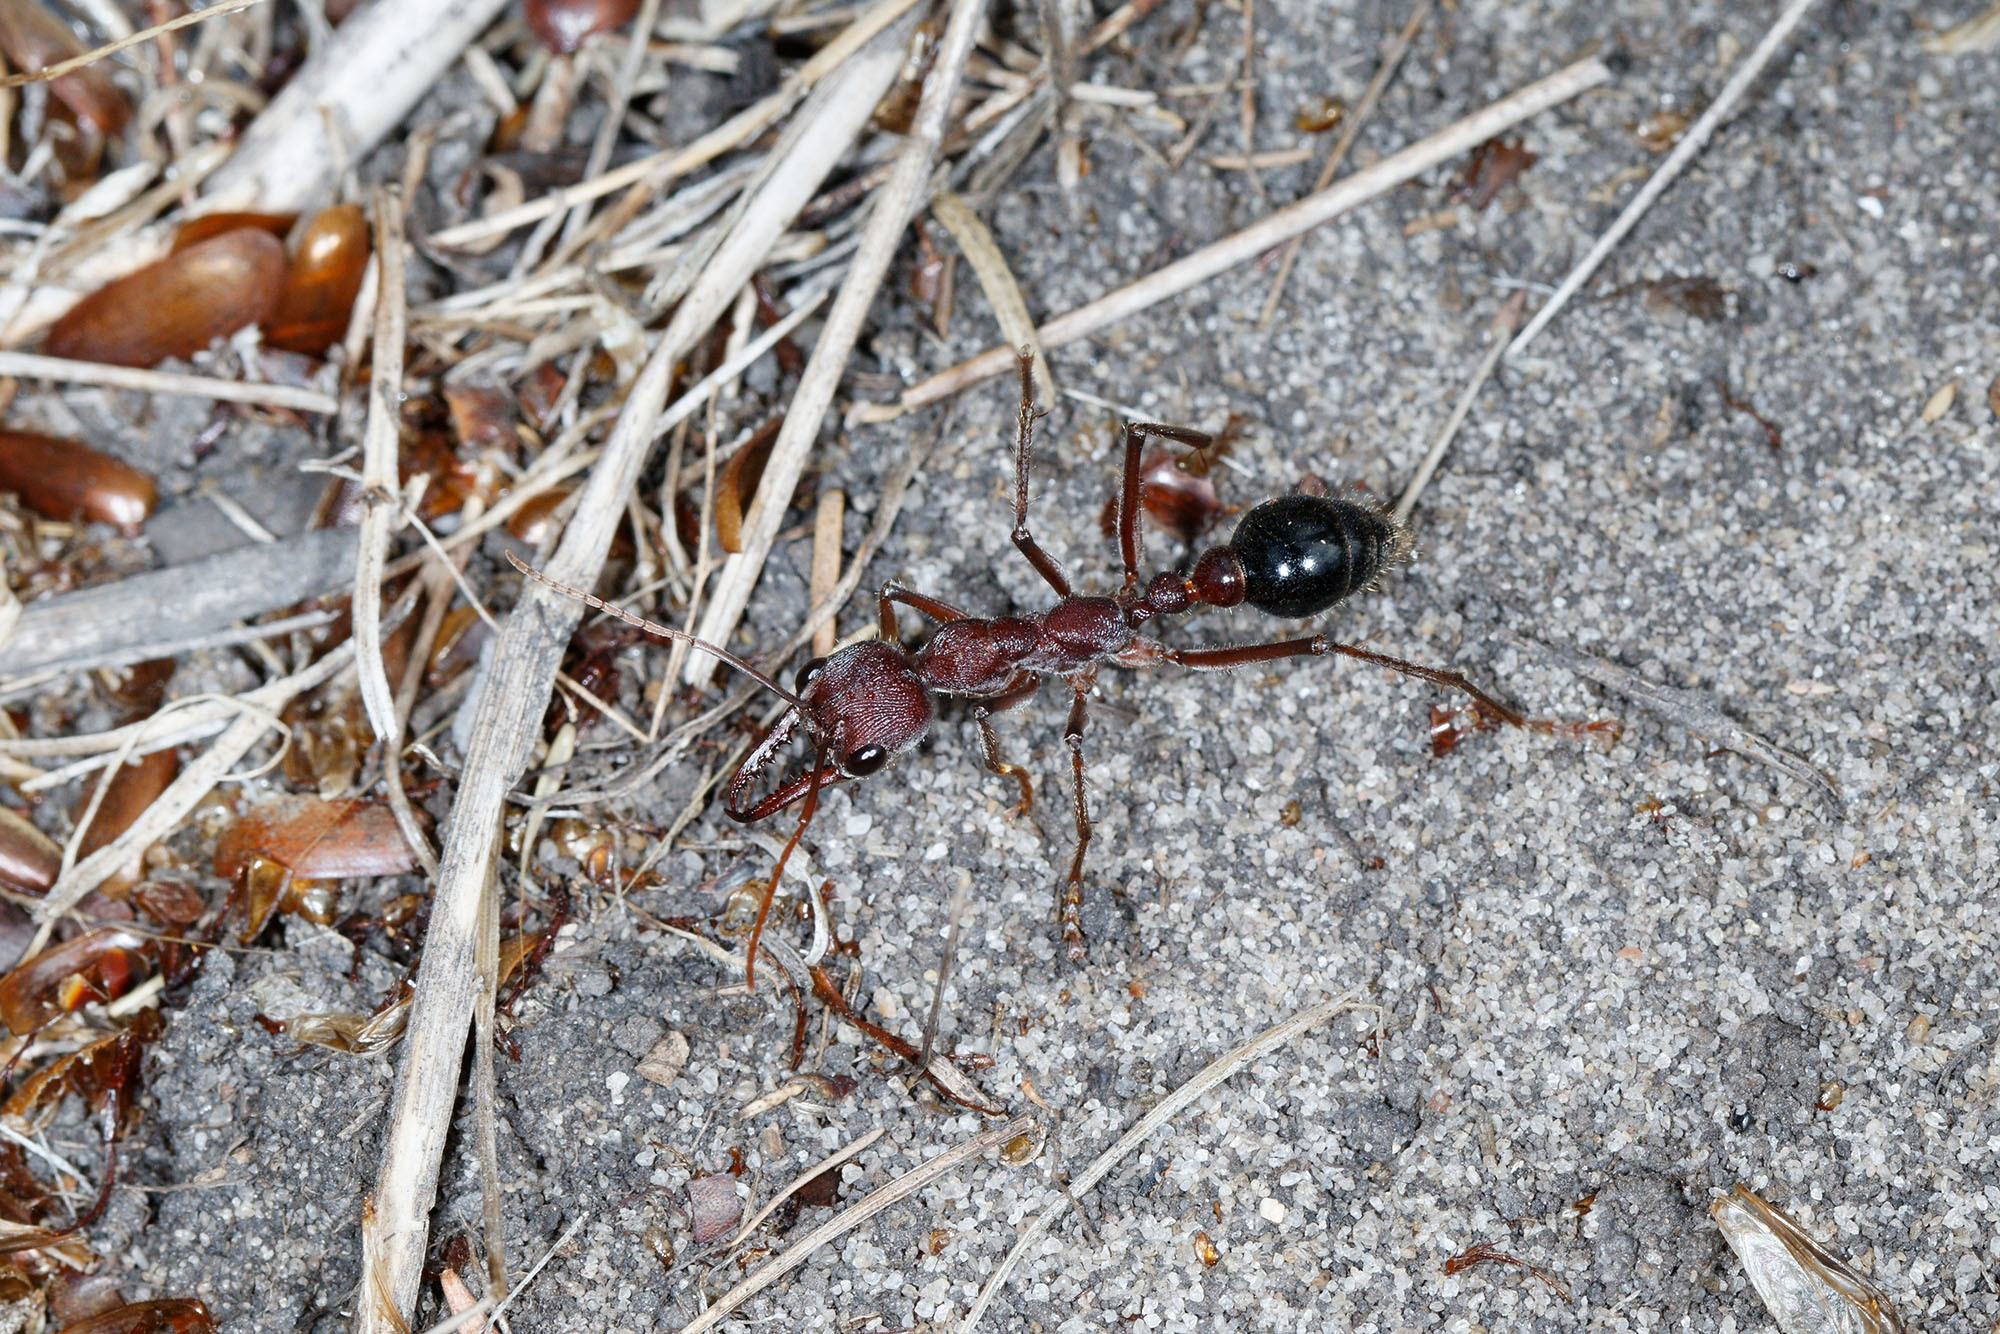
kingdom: Animalia
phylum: Arthropoda
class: Insecta
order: Hymenoptera
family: Formicidae
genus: Myrmecia
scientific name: Myrmecia simillima
